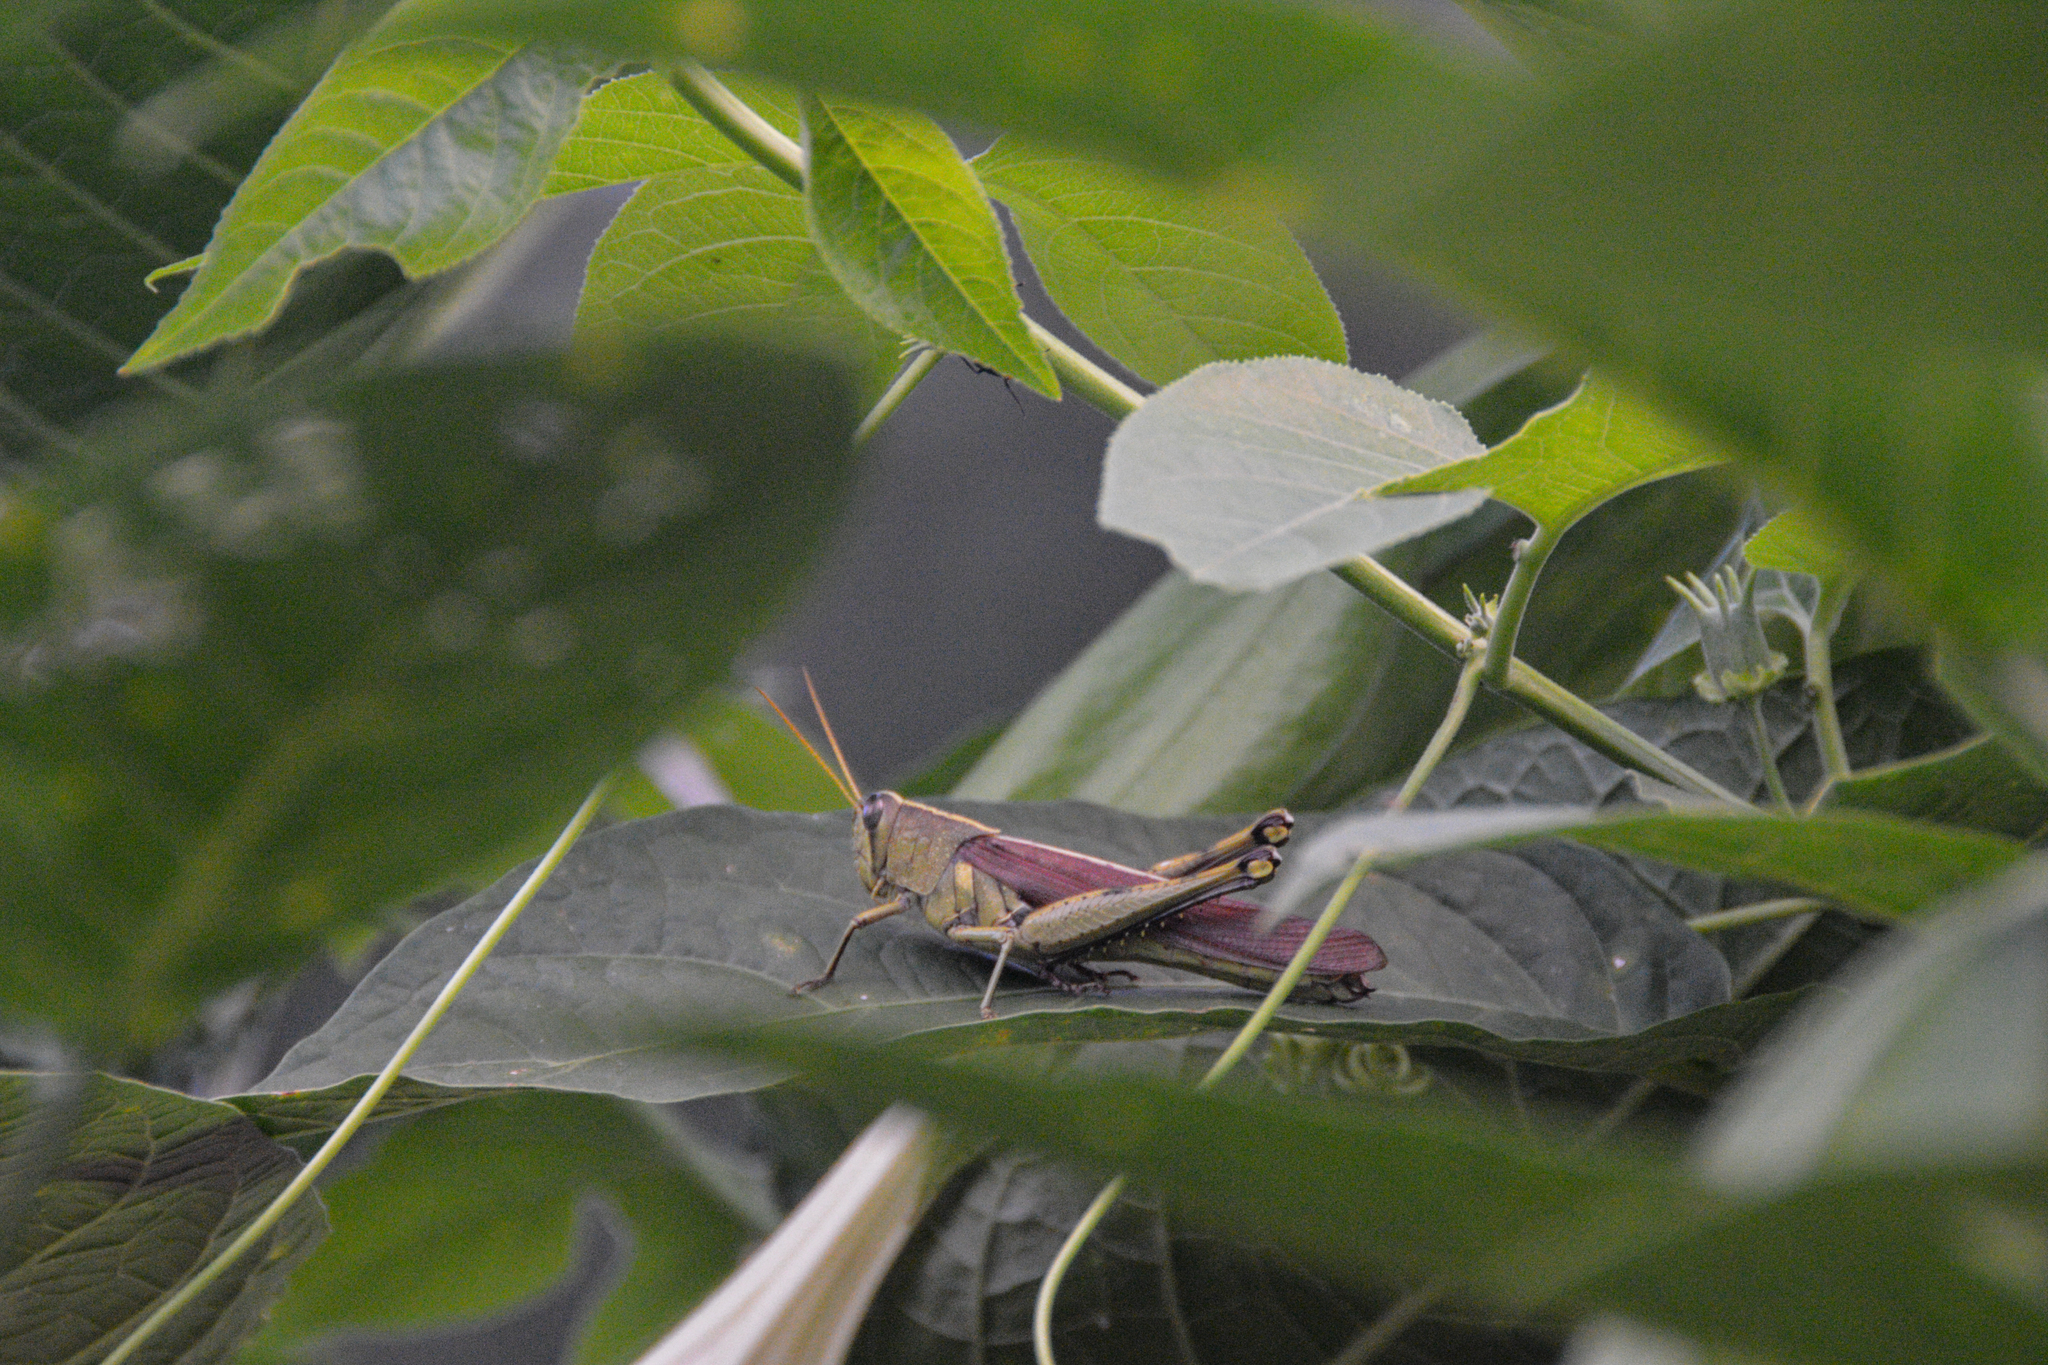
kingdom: Animalia
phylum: Arthropoda
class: Insecta
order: Orthoptera
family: Acrididae
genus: Schistocerca
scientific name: Schistocerca obscura
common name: Obscure bird grasshopper
